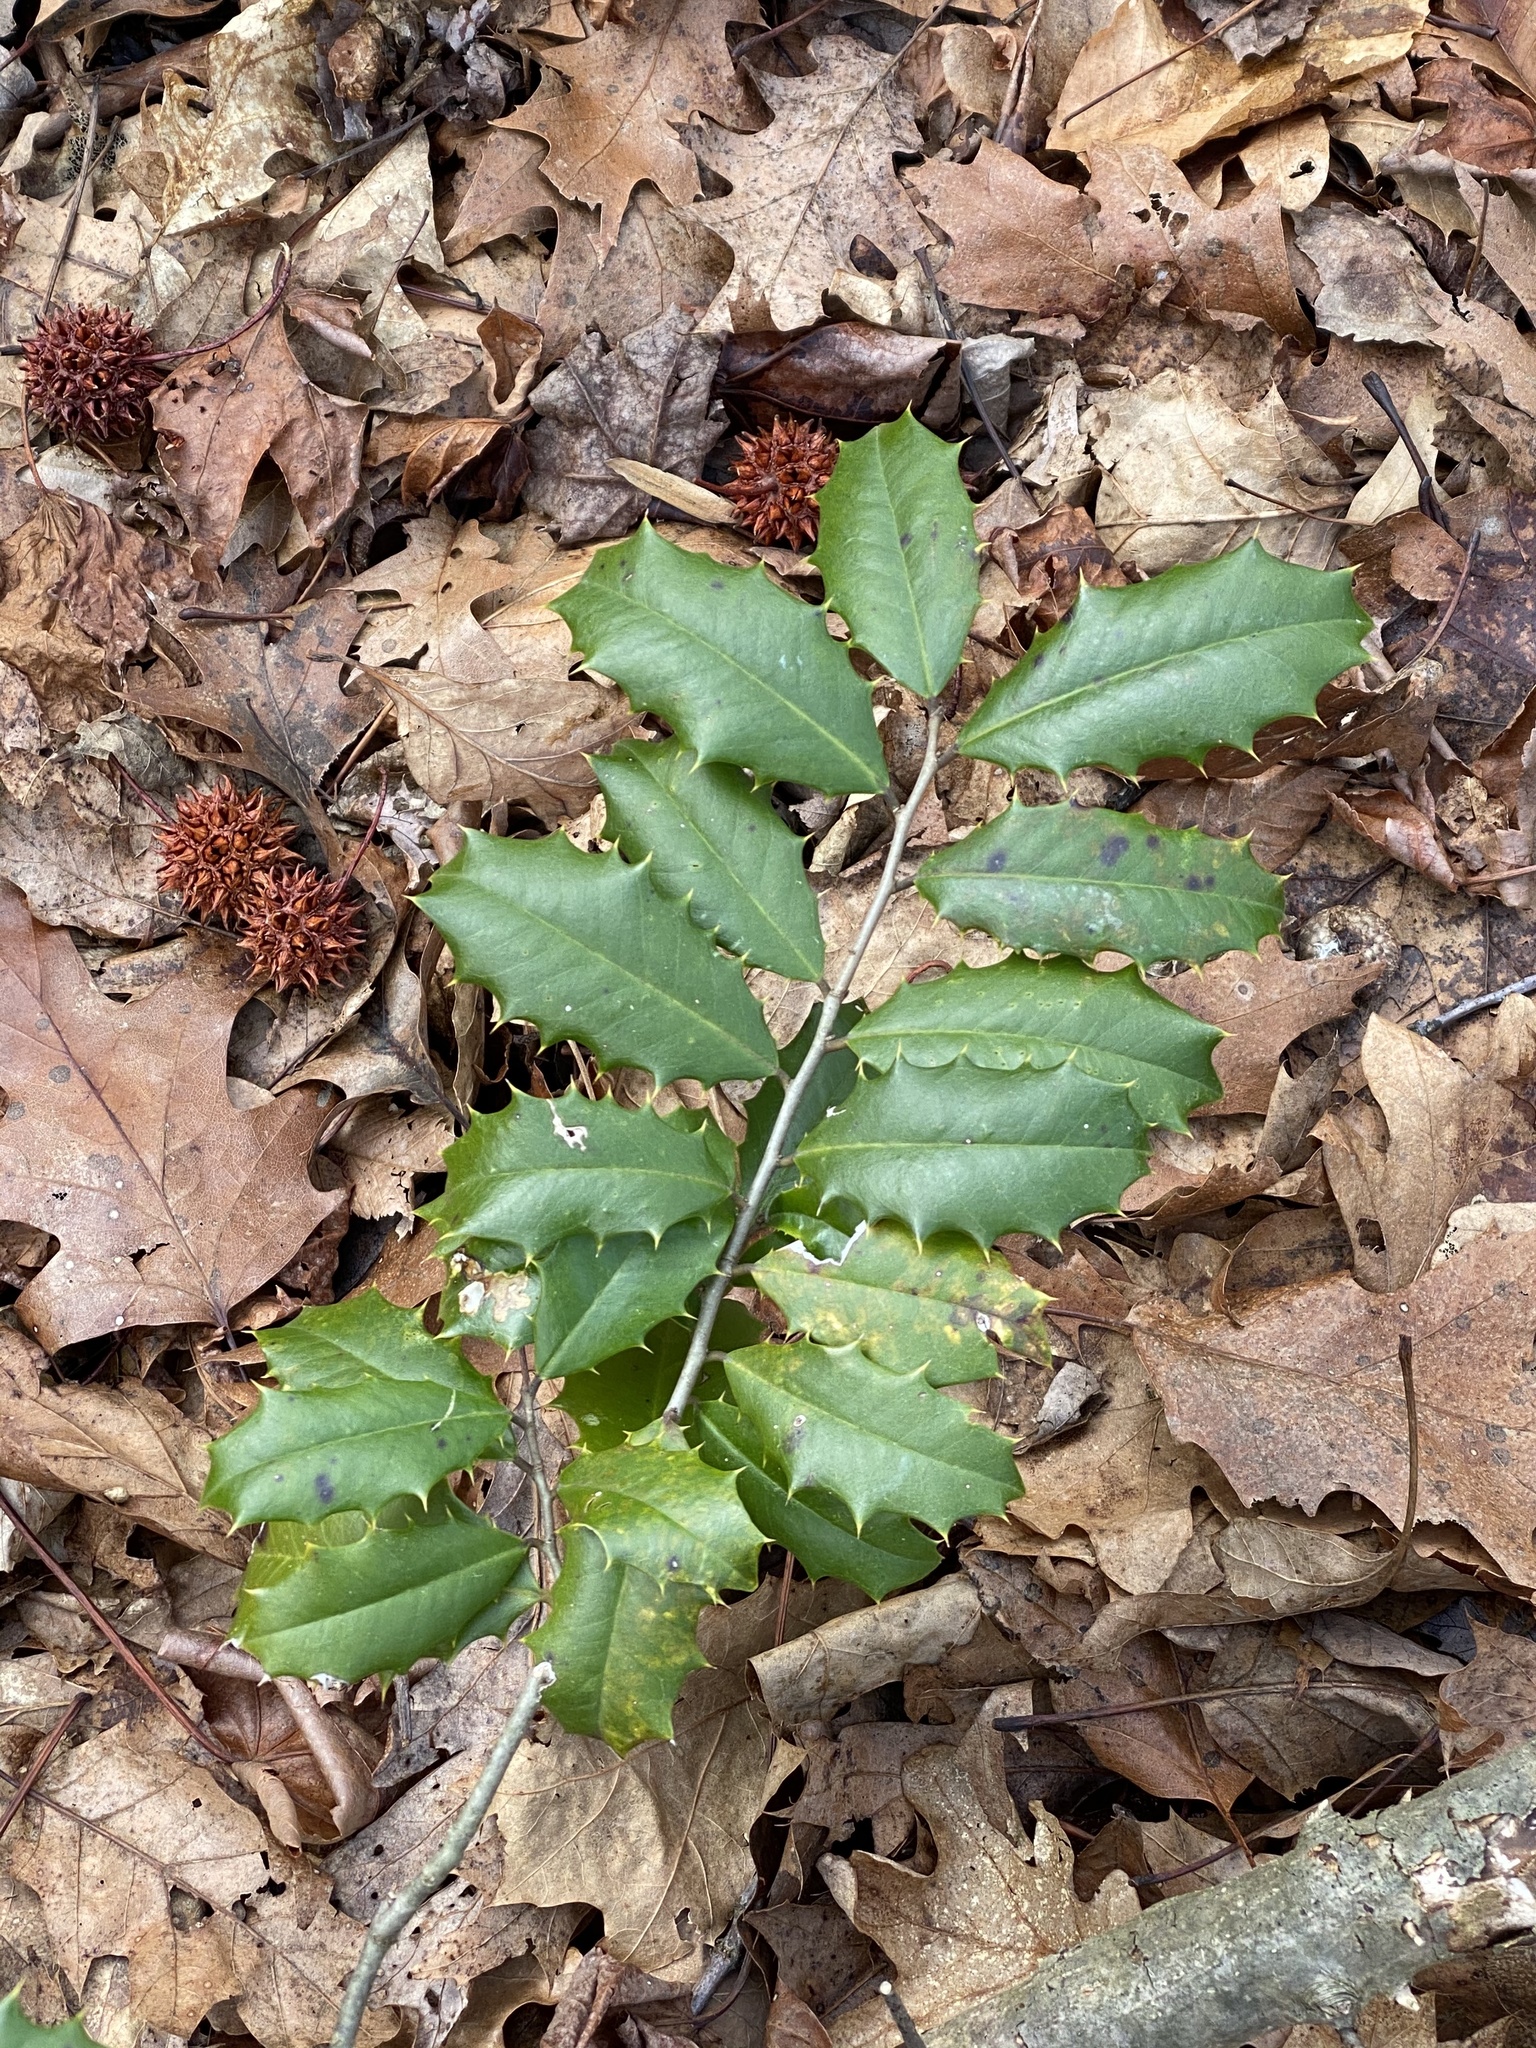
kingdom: Plantae
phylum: Tracheophyta
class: Magnoliopsida
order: Aquifoliales
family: Aquifoliaceae
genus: Ilex
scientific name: Ilex opaca
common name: American holly
